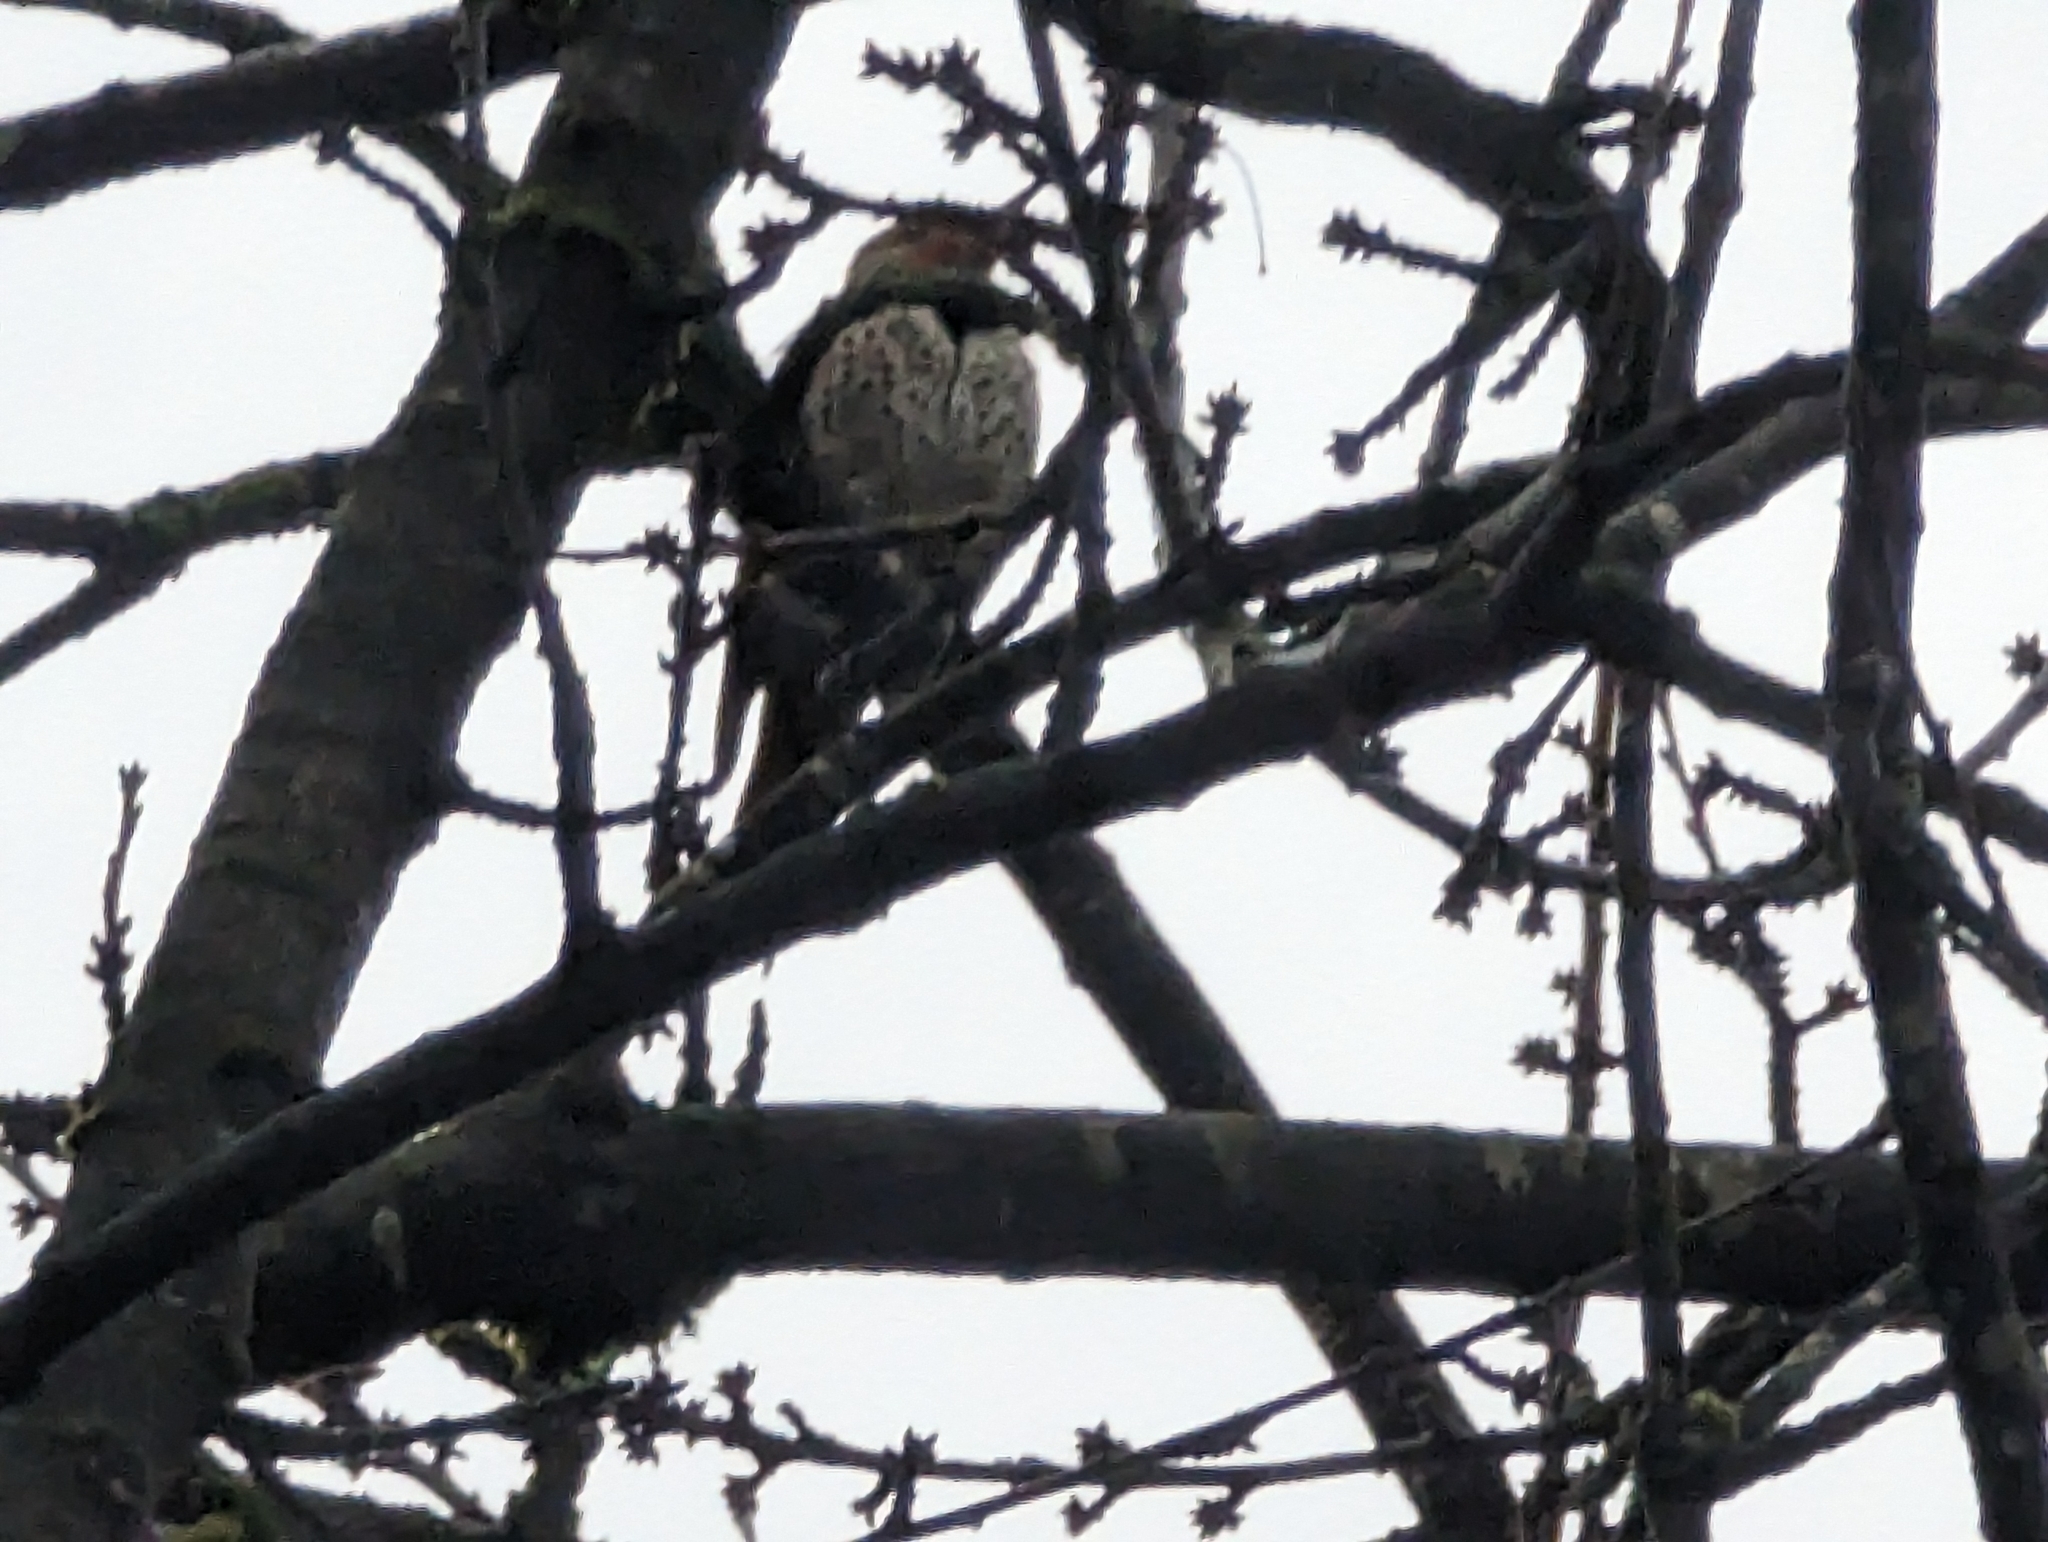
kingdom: Animalia
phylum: Chordata
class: Aves
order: Piciformes
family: Picidae
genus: Colaptes
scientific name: Colaptes auratus
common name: Northern flicker
